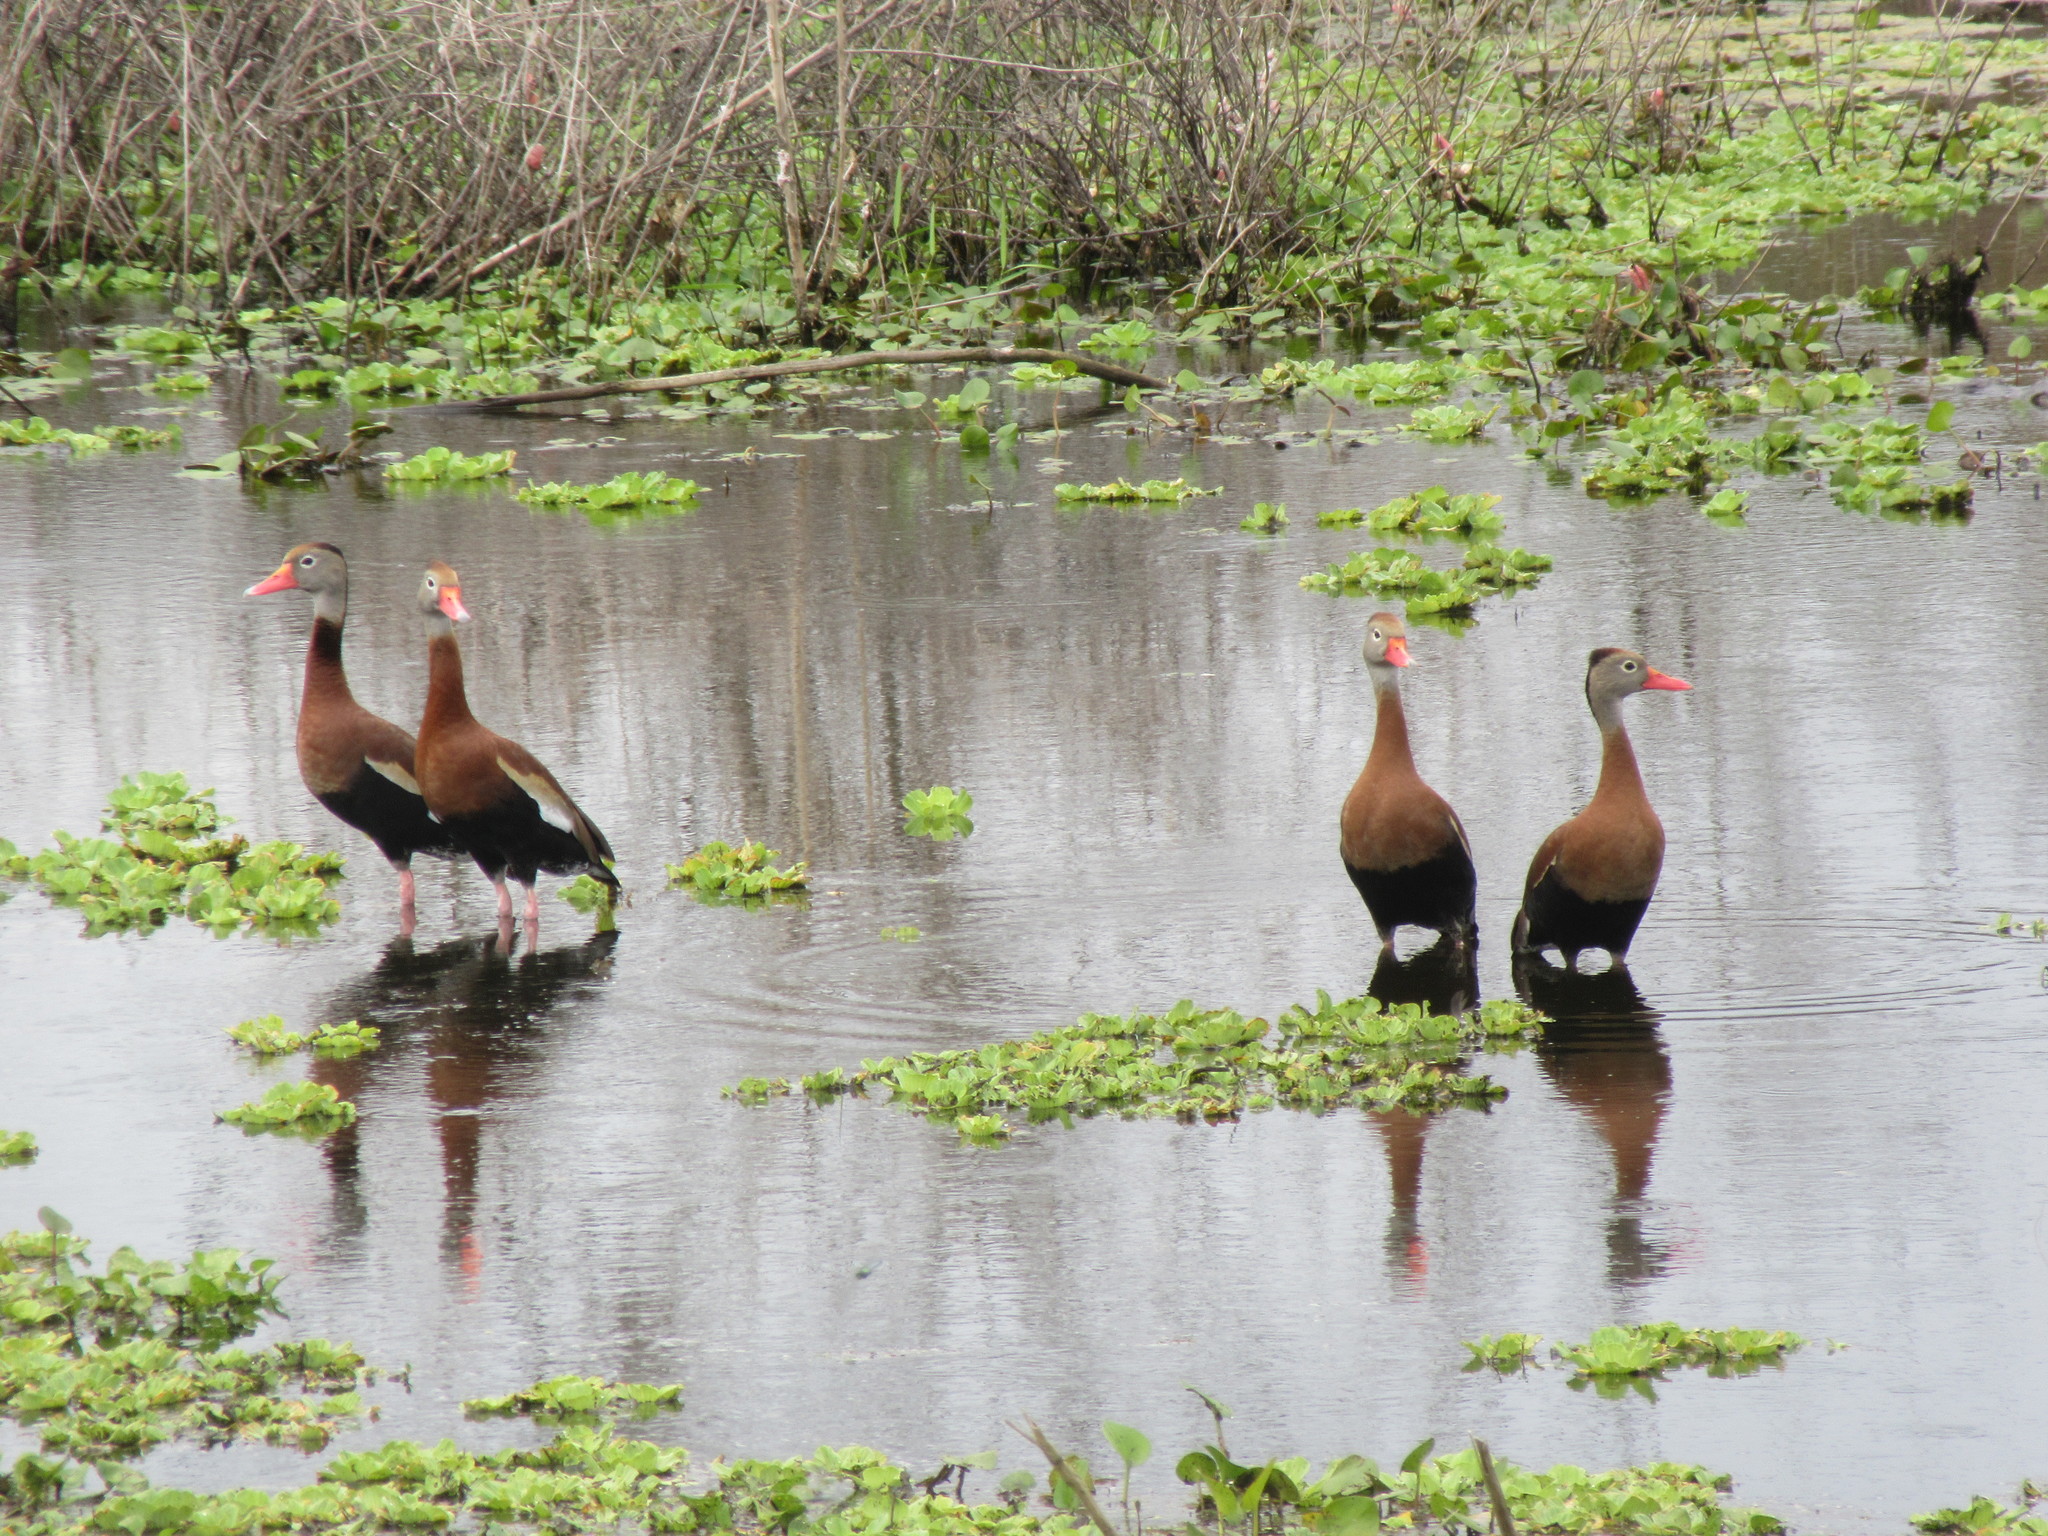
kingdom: Animalia
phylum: Chordata
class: Aves
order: Anseriformes
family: Anatidae
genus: Dendrocygna
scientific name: Dendrocygna autumnalis
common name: Black-bellied whistling duck
